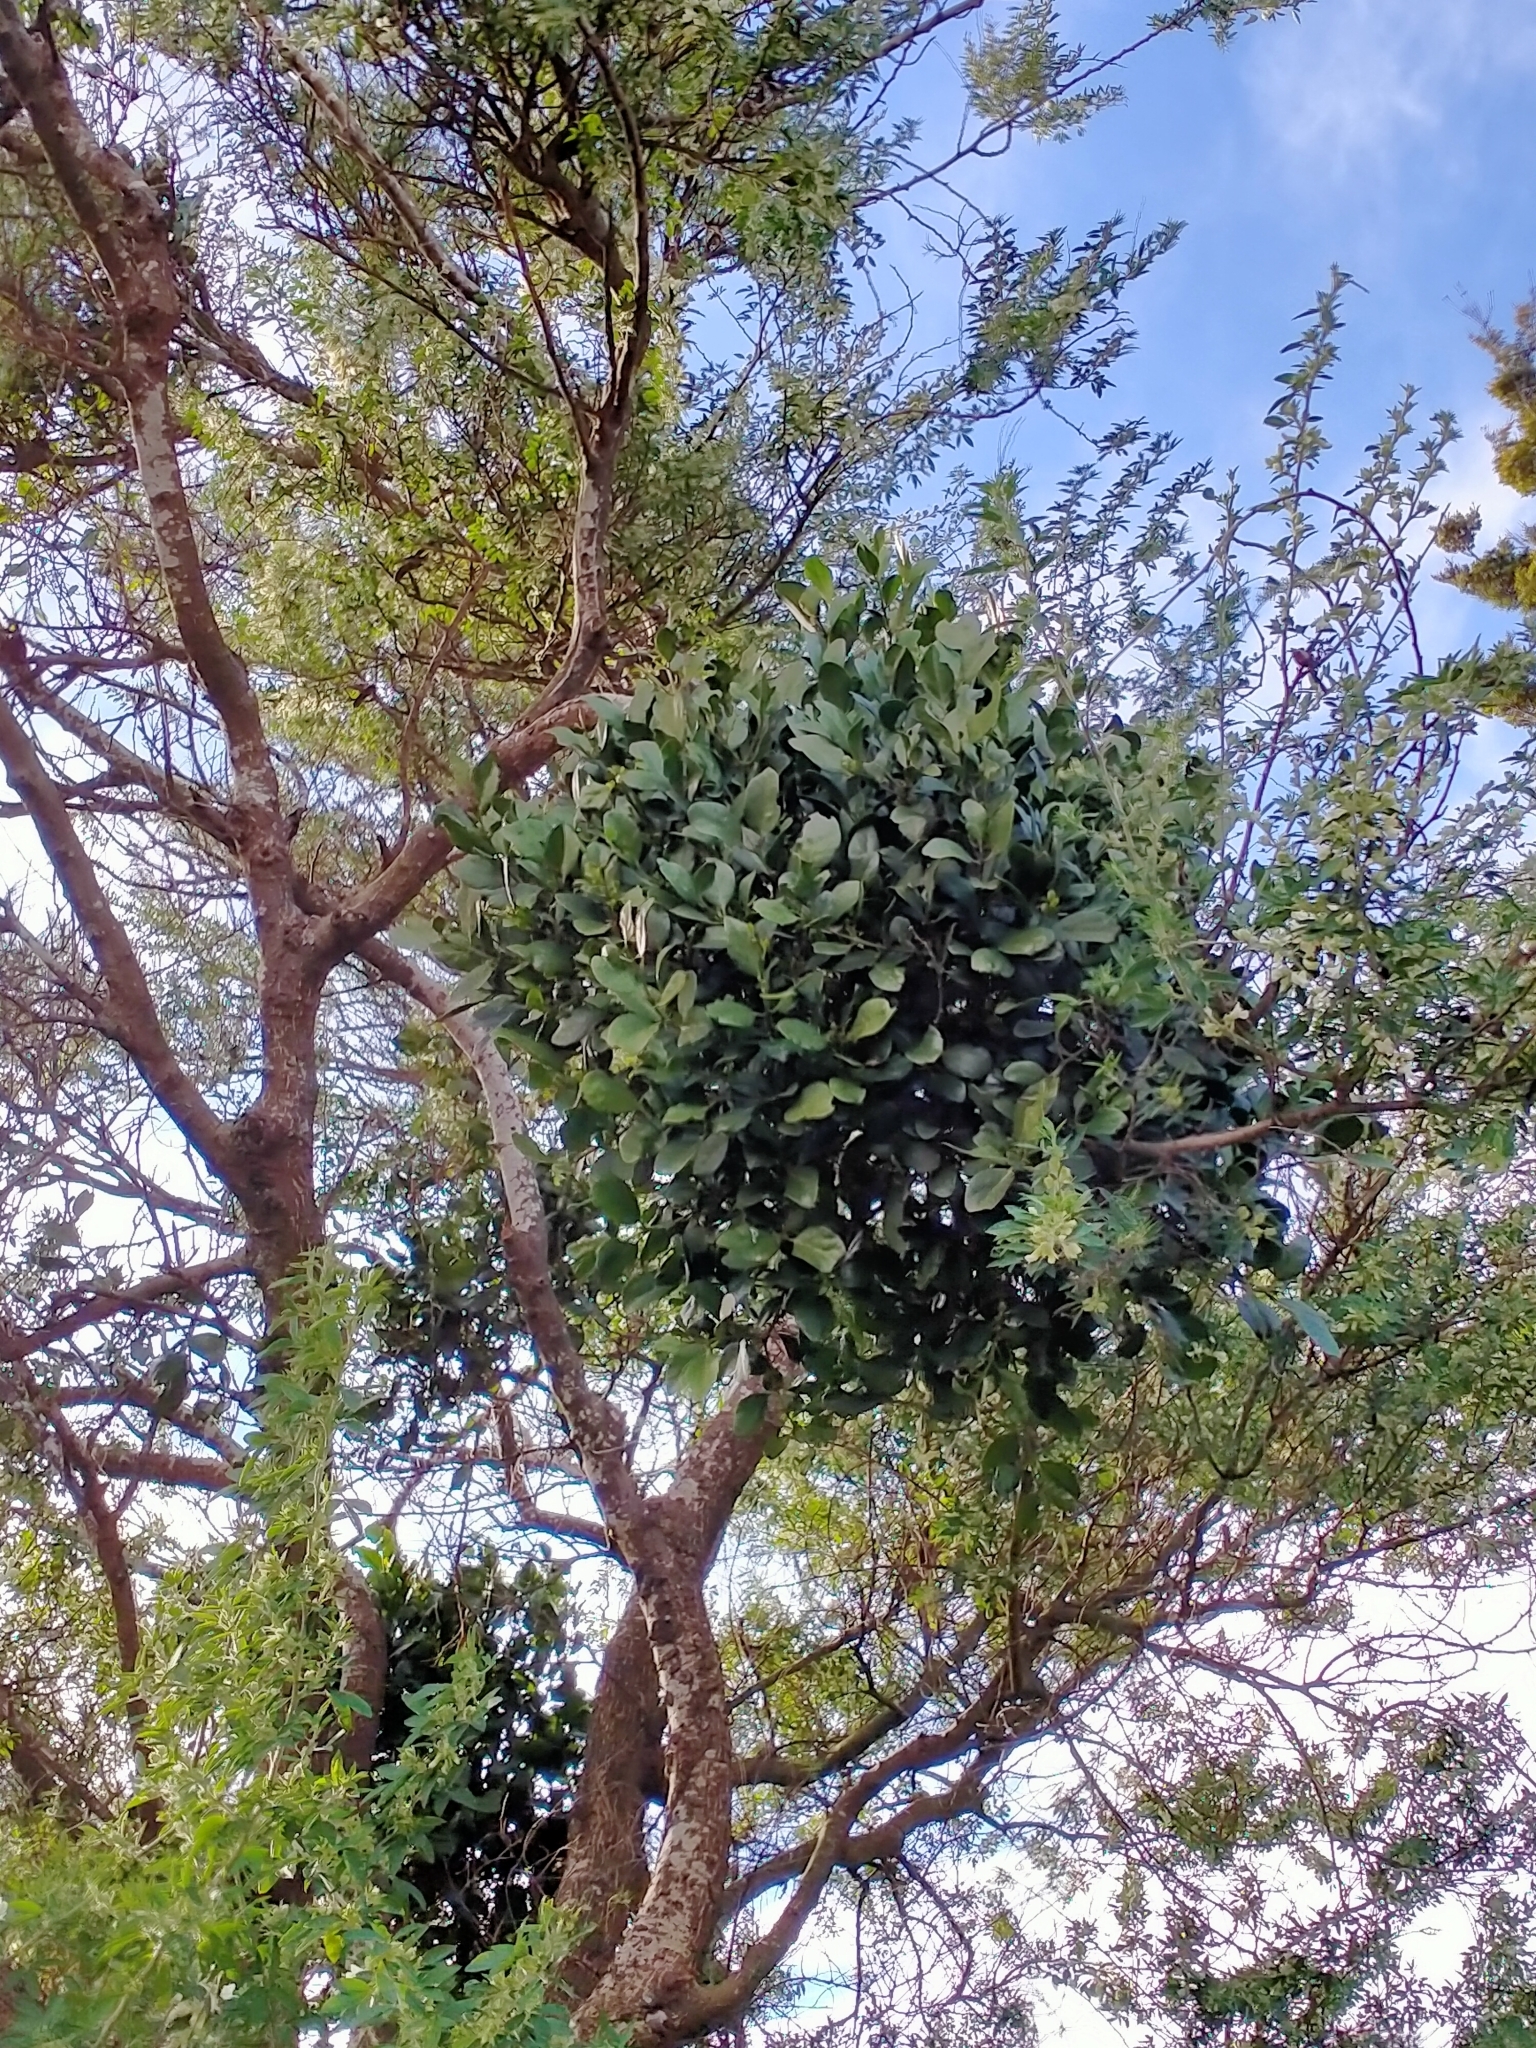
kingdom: Plantae
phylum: Tracheophyta
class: Magnoliopsida
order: Santalales
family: Loranthaceae
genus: Ileostylus
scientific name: Ileostylus micranthus
